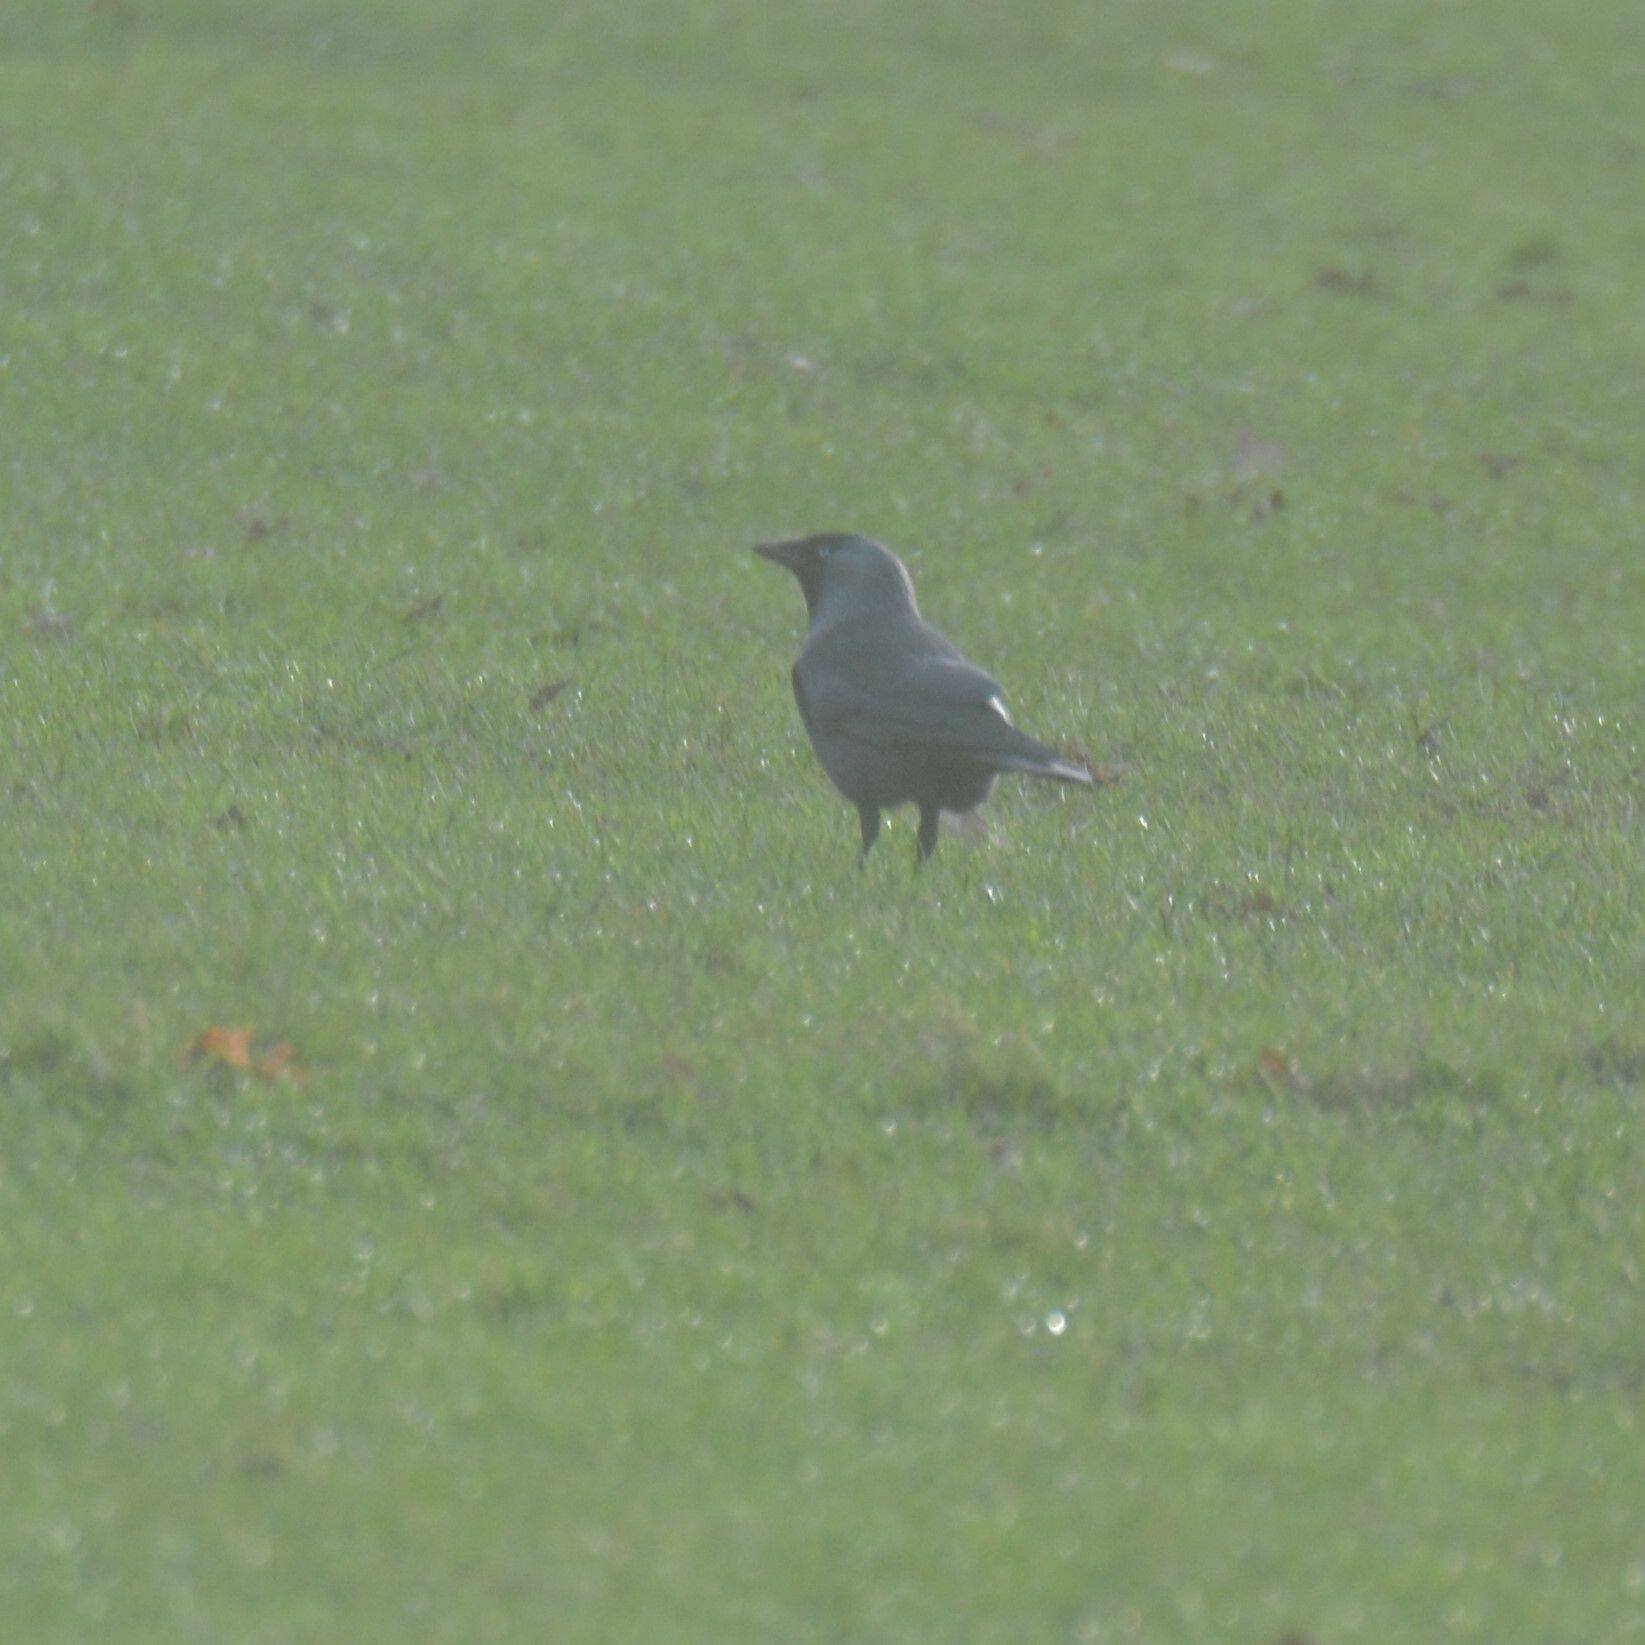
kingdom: Animalia
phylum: Chordata
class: Aves
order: Passeriformes
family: Corvidae
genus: Coloeus
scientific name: Coloeus monedula
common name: Western jackdaw
